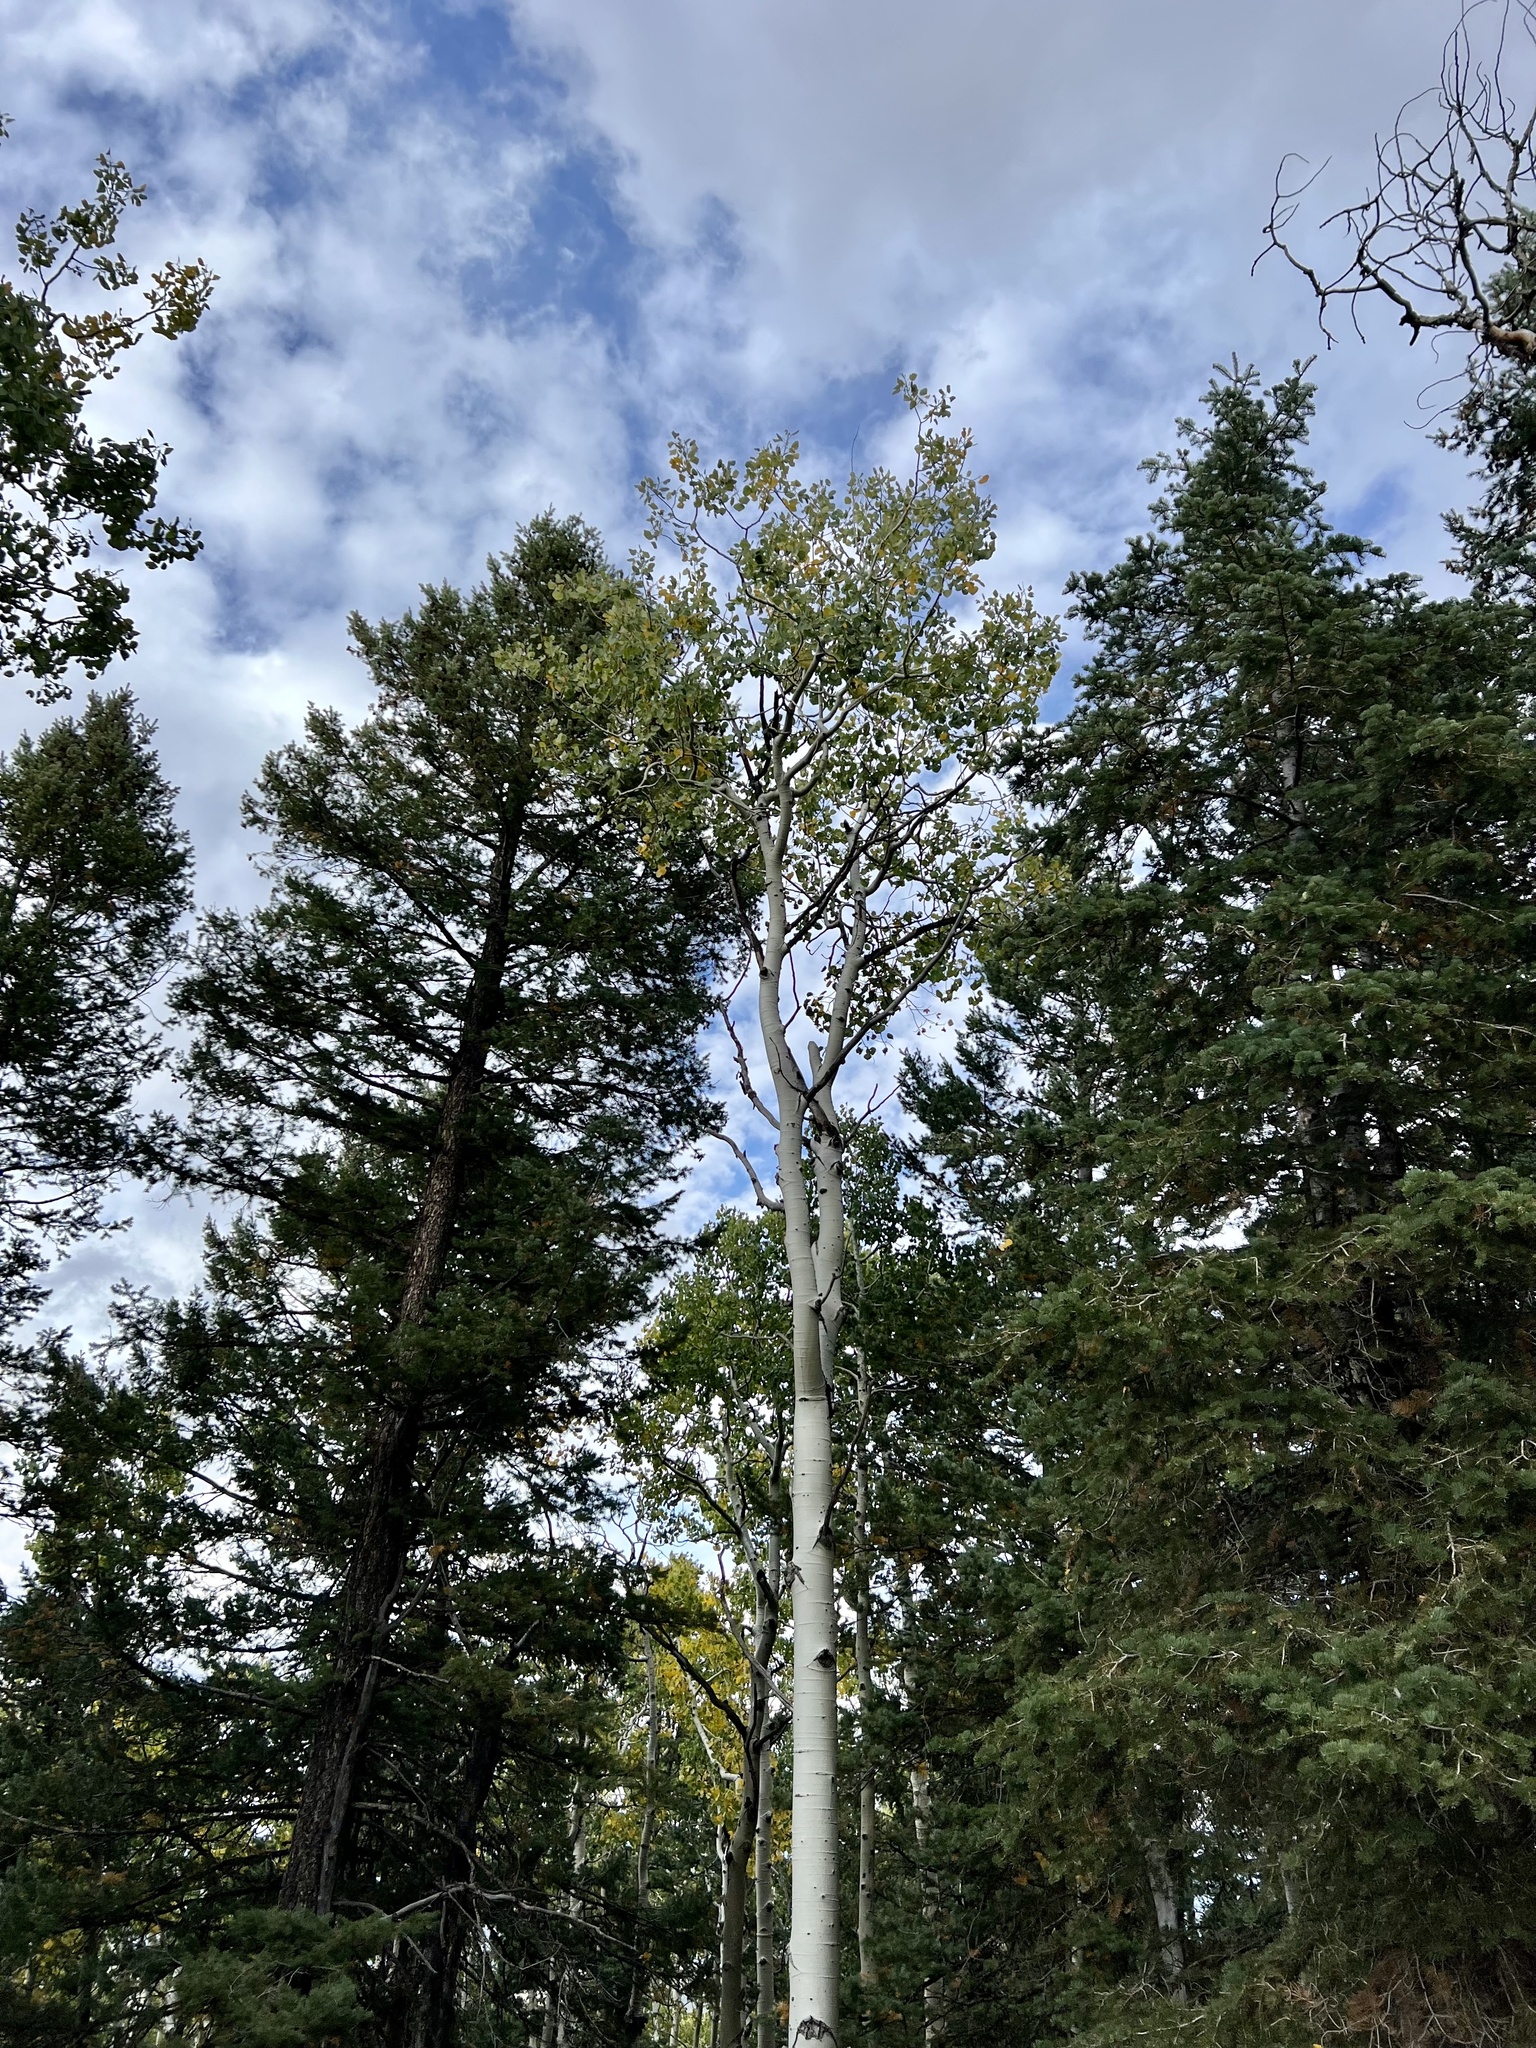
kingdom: Plantae
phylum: Tracheophyta
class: Magnoliopsida
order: Malpighiales
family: Salicaceae
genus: Populus
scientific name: Populus tremuloides
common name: Quaking aspen
